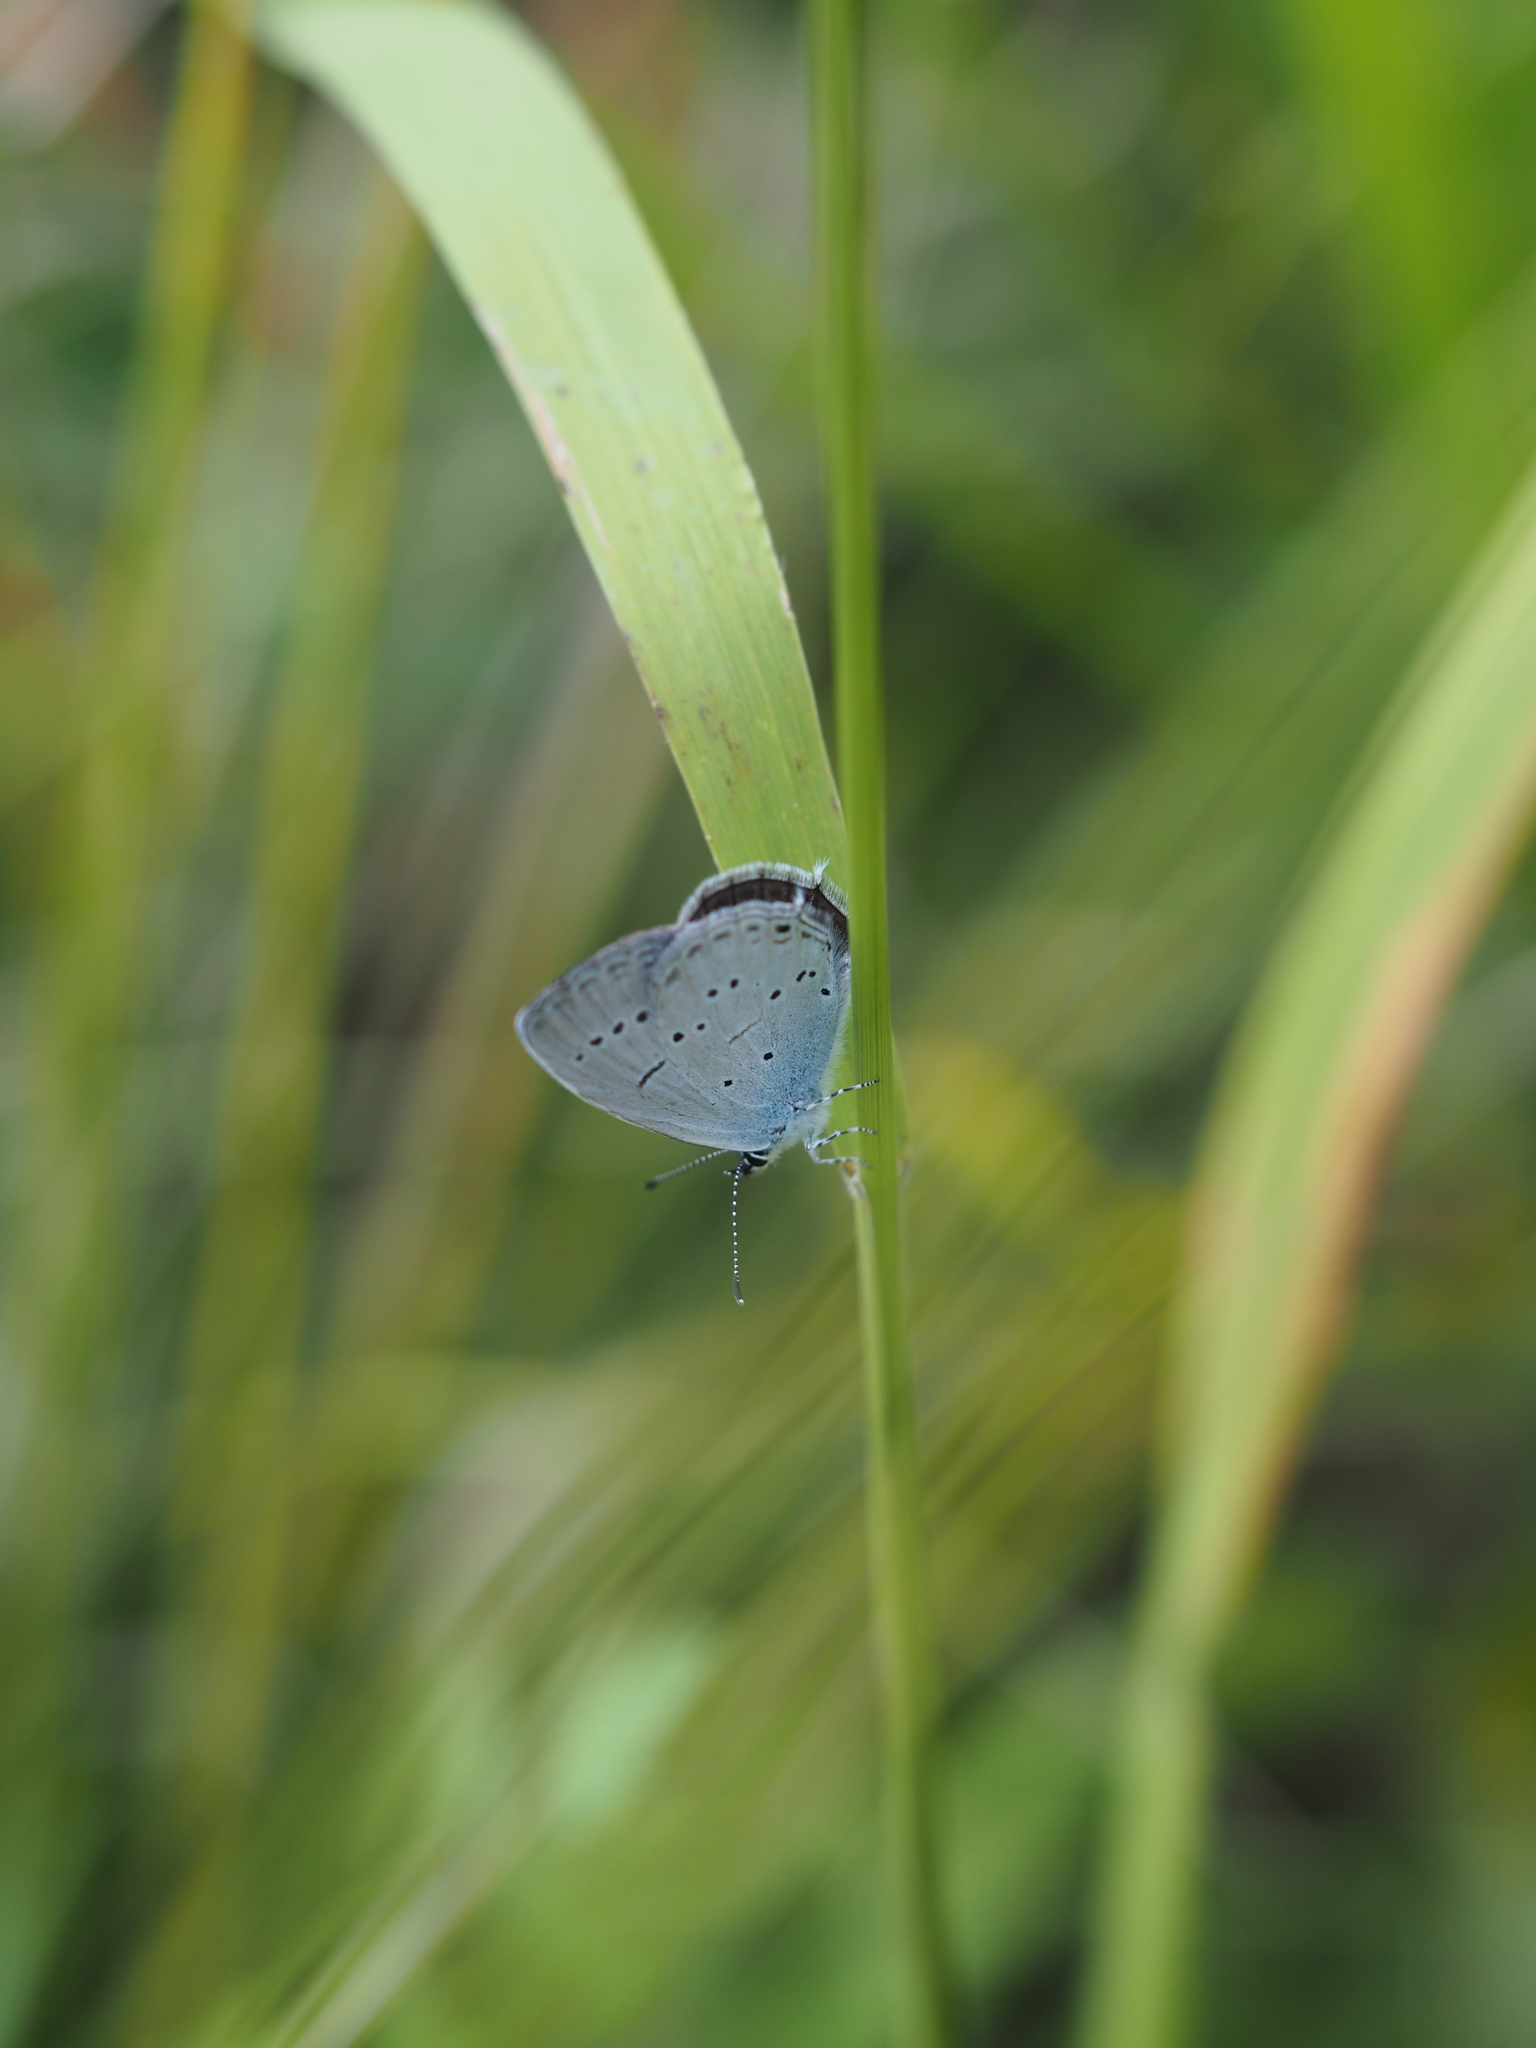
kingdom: Animalia
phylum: Arthropoda
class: Insecta
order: Lepidoptera
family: Lycaenidae
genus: Elkalyce
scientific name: Elkalyce decolorata
